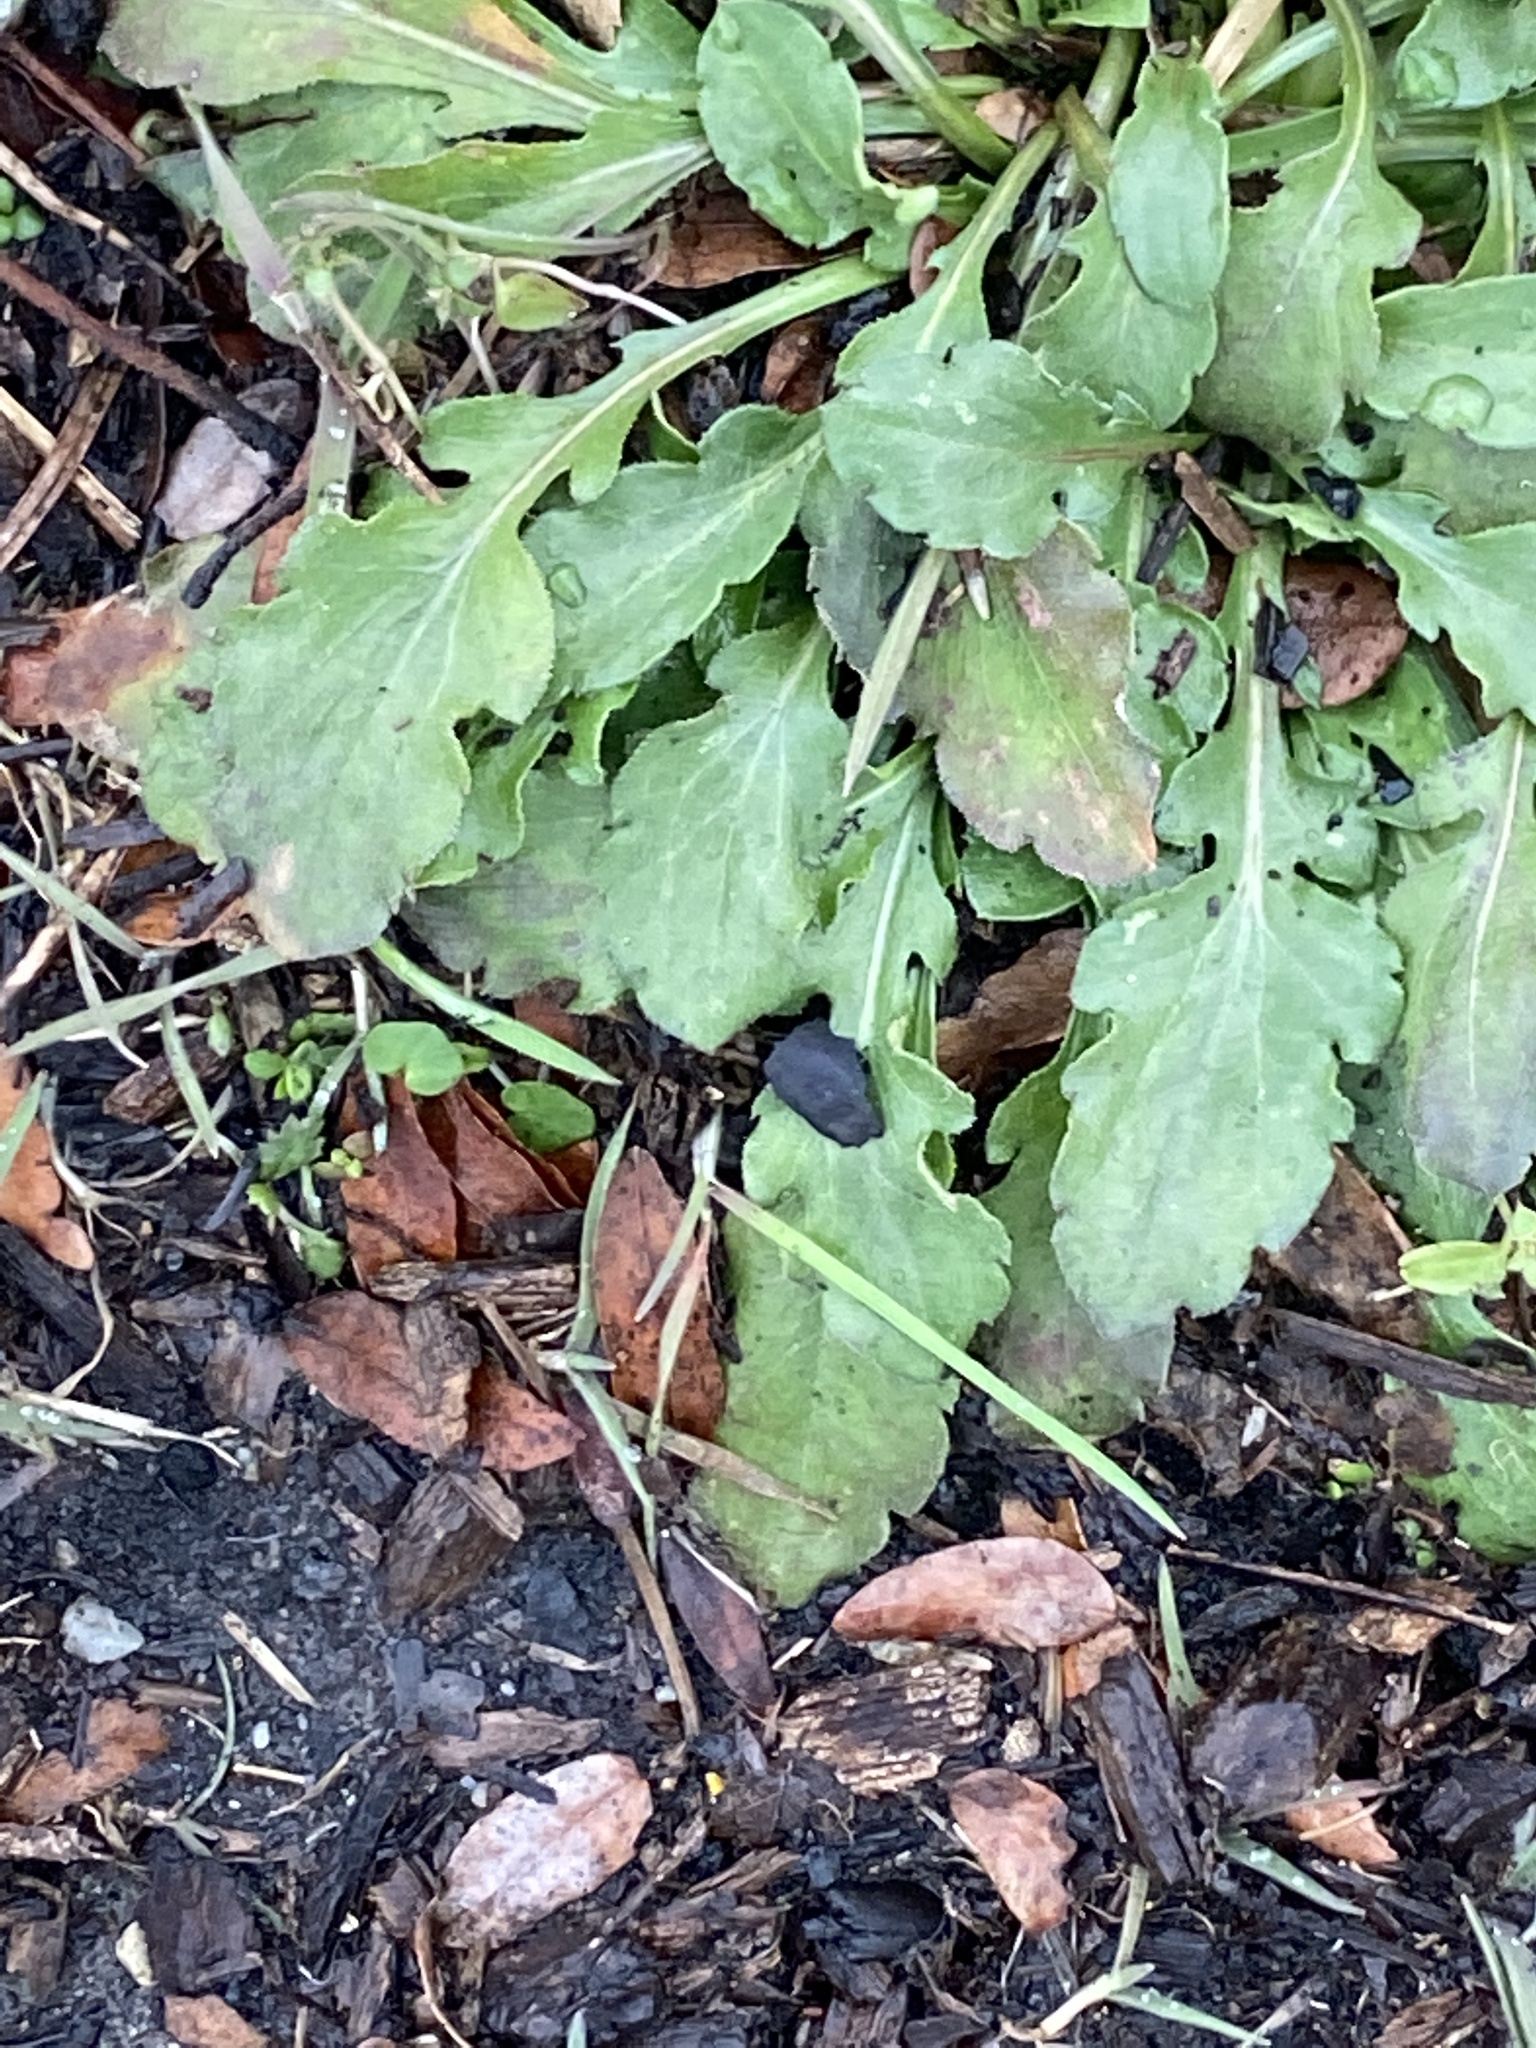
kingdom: Plantae
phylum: Tracheophyta
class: Magnoliopsida
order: Asterales
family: Asteraceae
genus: Erigeron
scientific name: Erigeron canadensis
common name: Canadian fleabane
